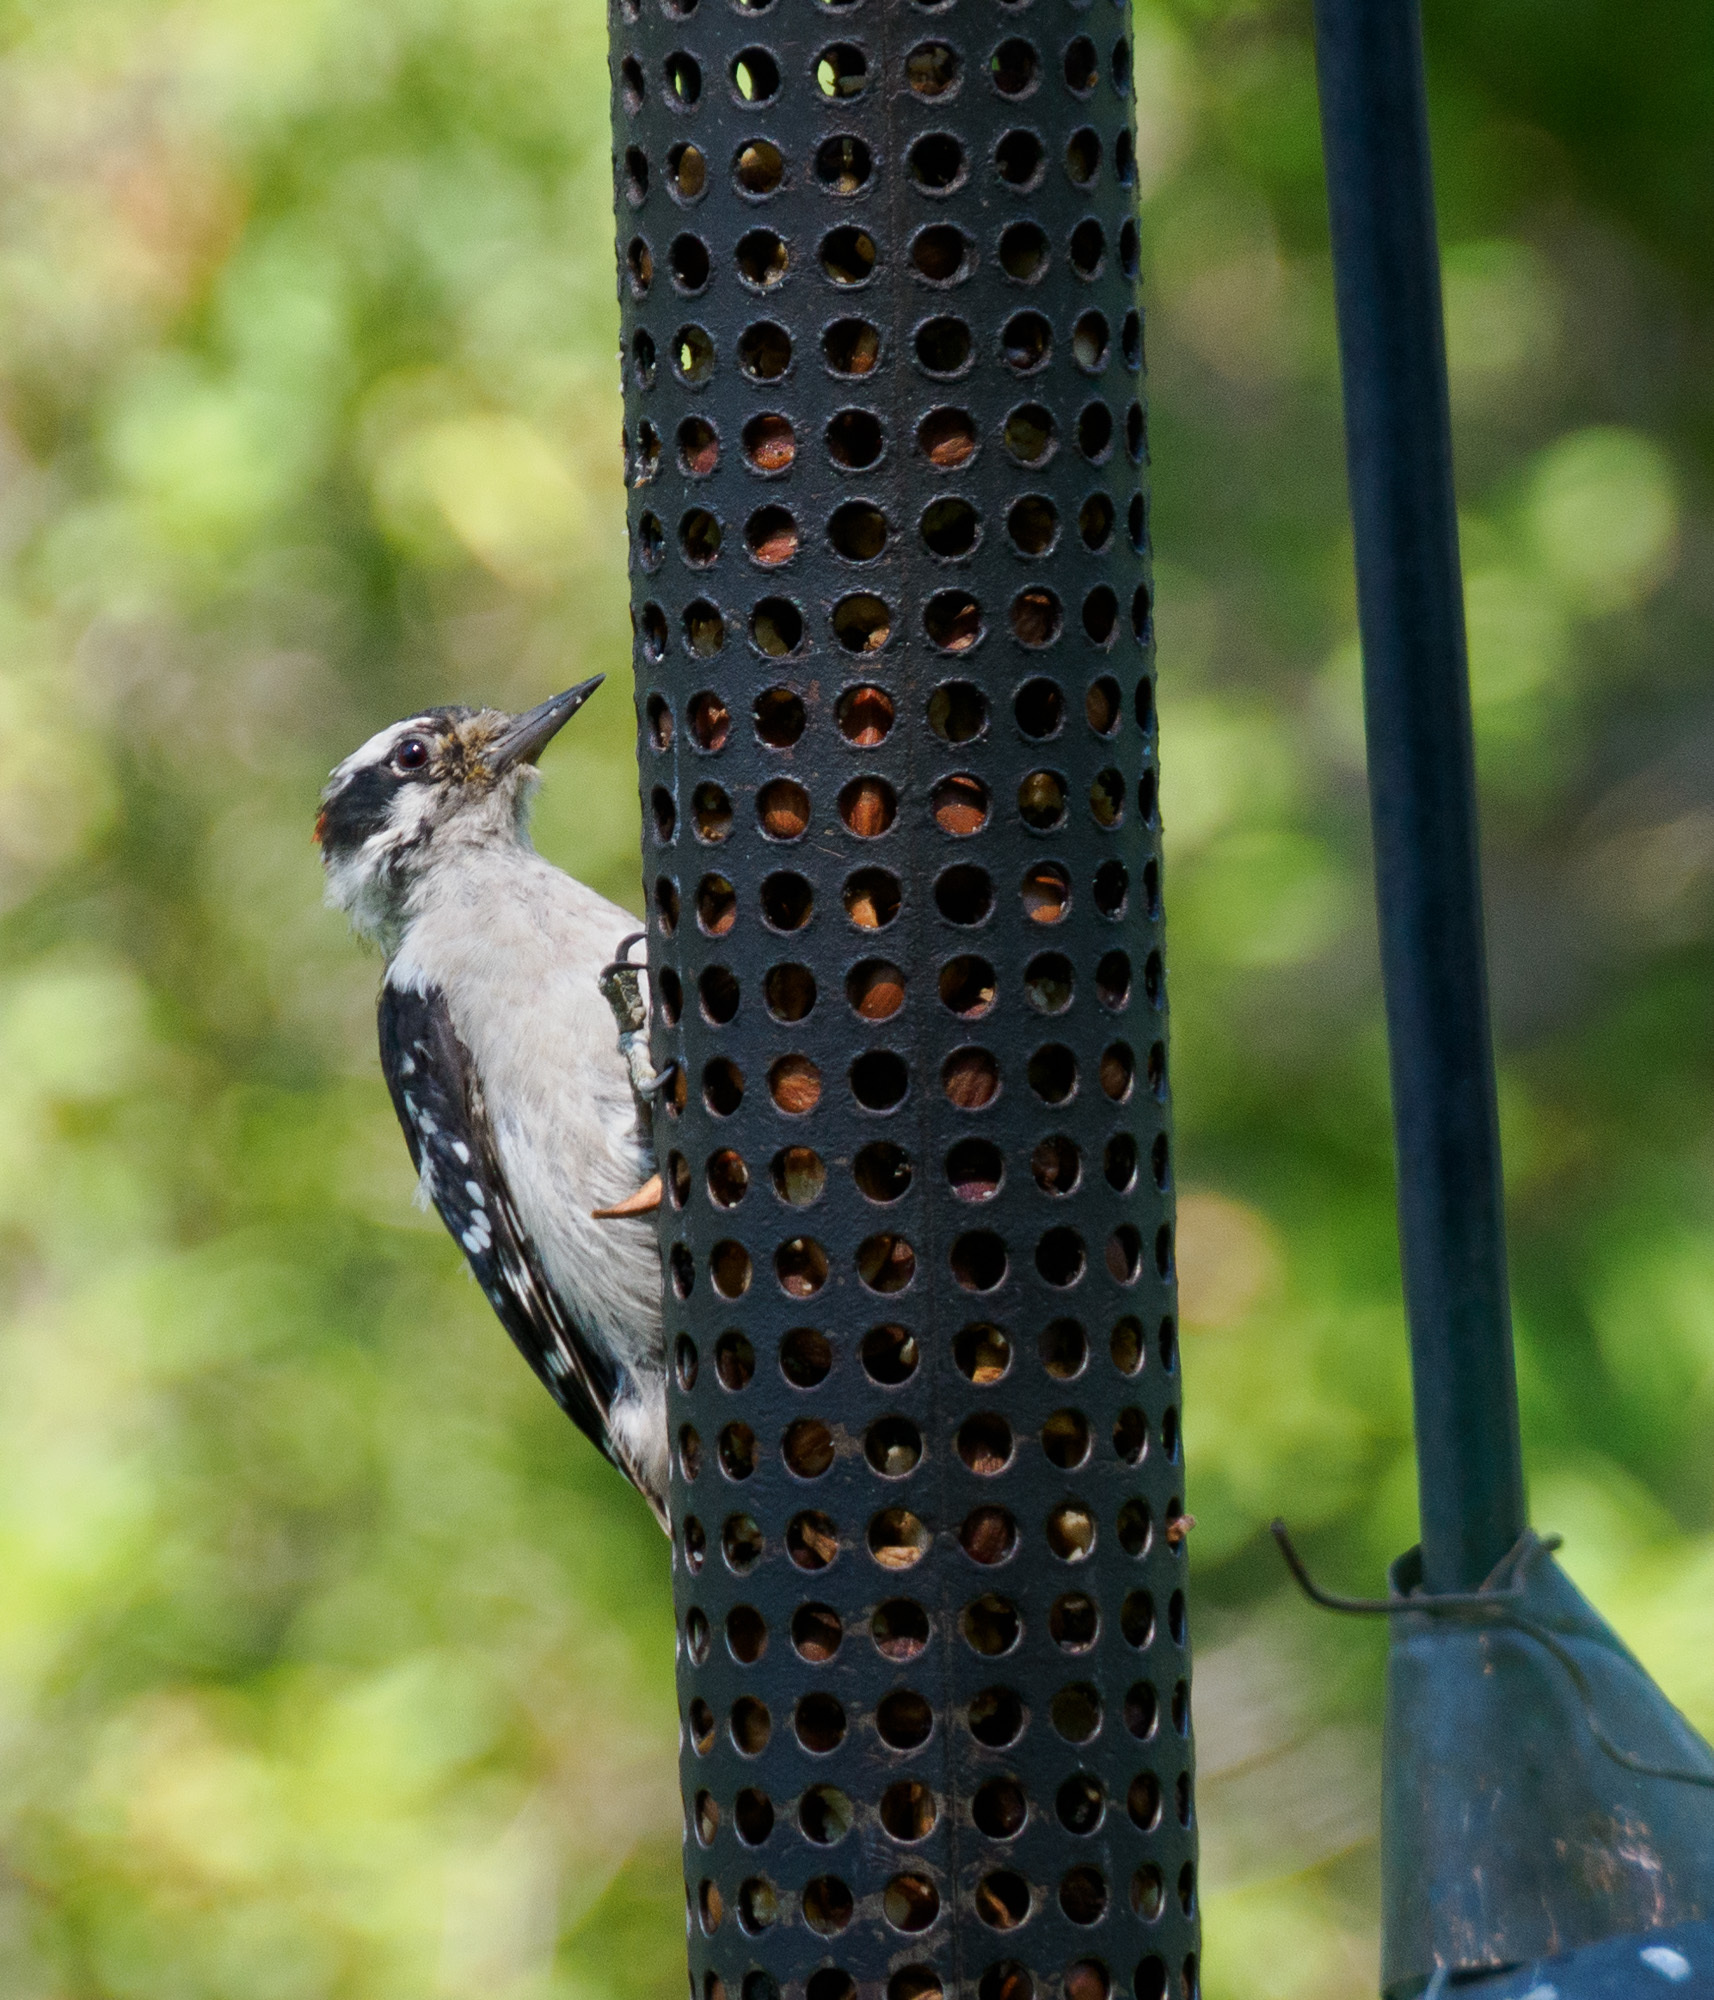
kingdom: Animalia
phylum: Chordata
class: Aves
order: Piciformes
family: Picidae
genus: Dryobates
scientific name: Dryobates pubescens
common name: Downy woodpecker
